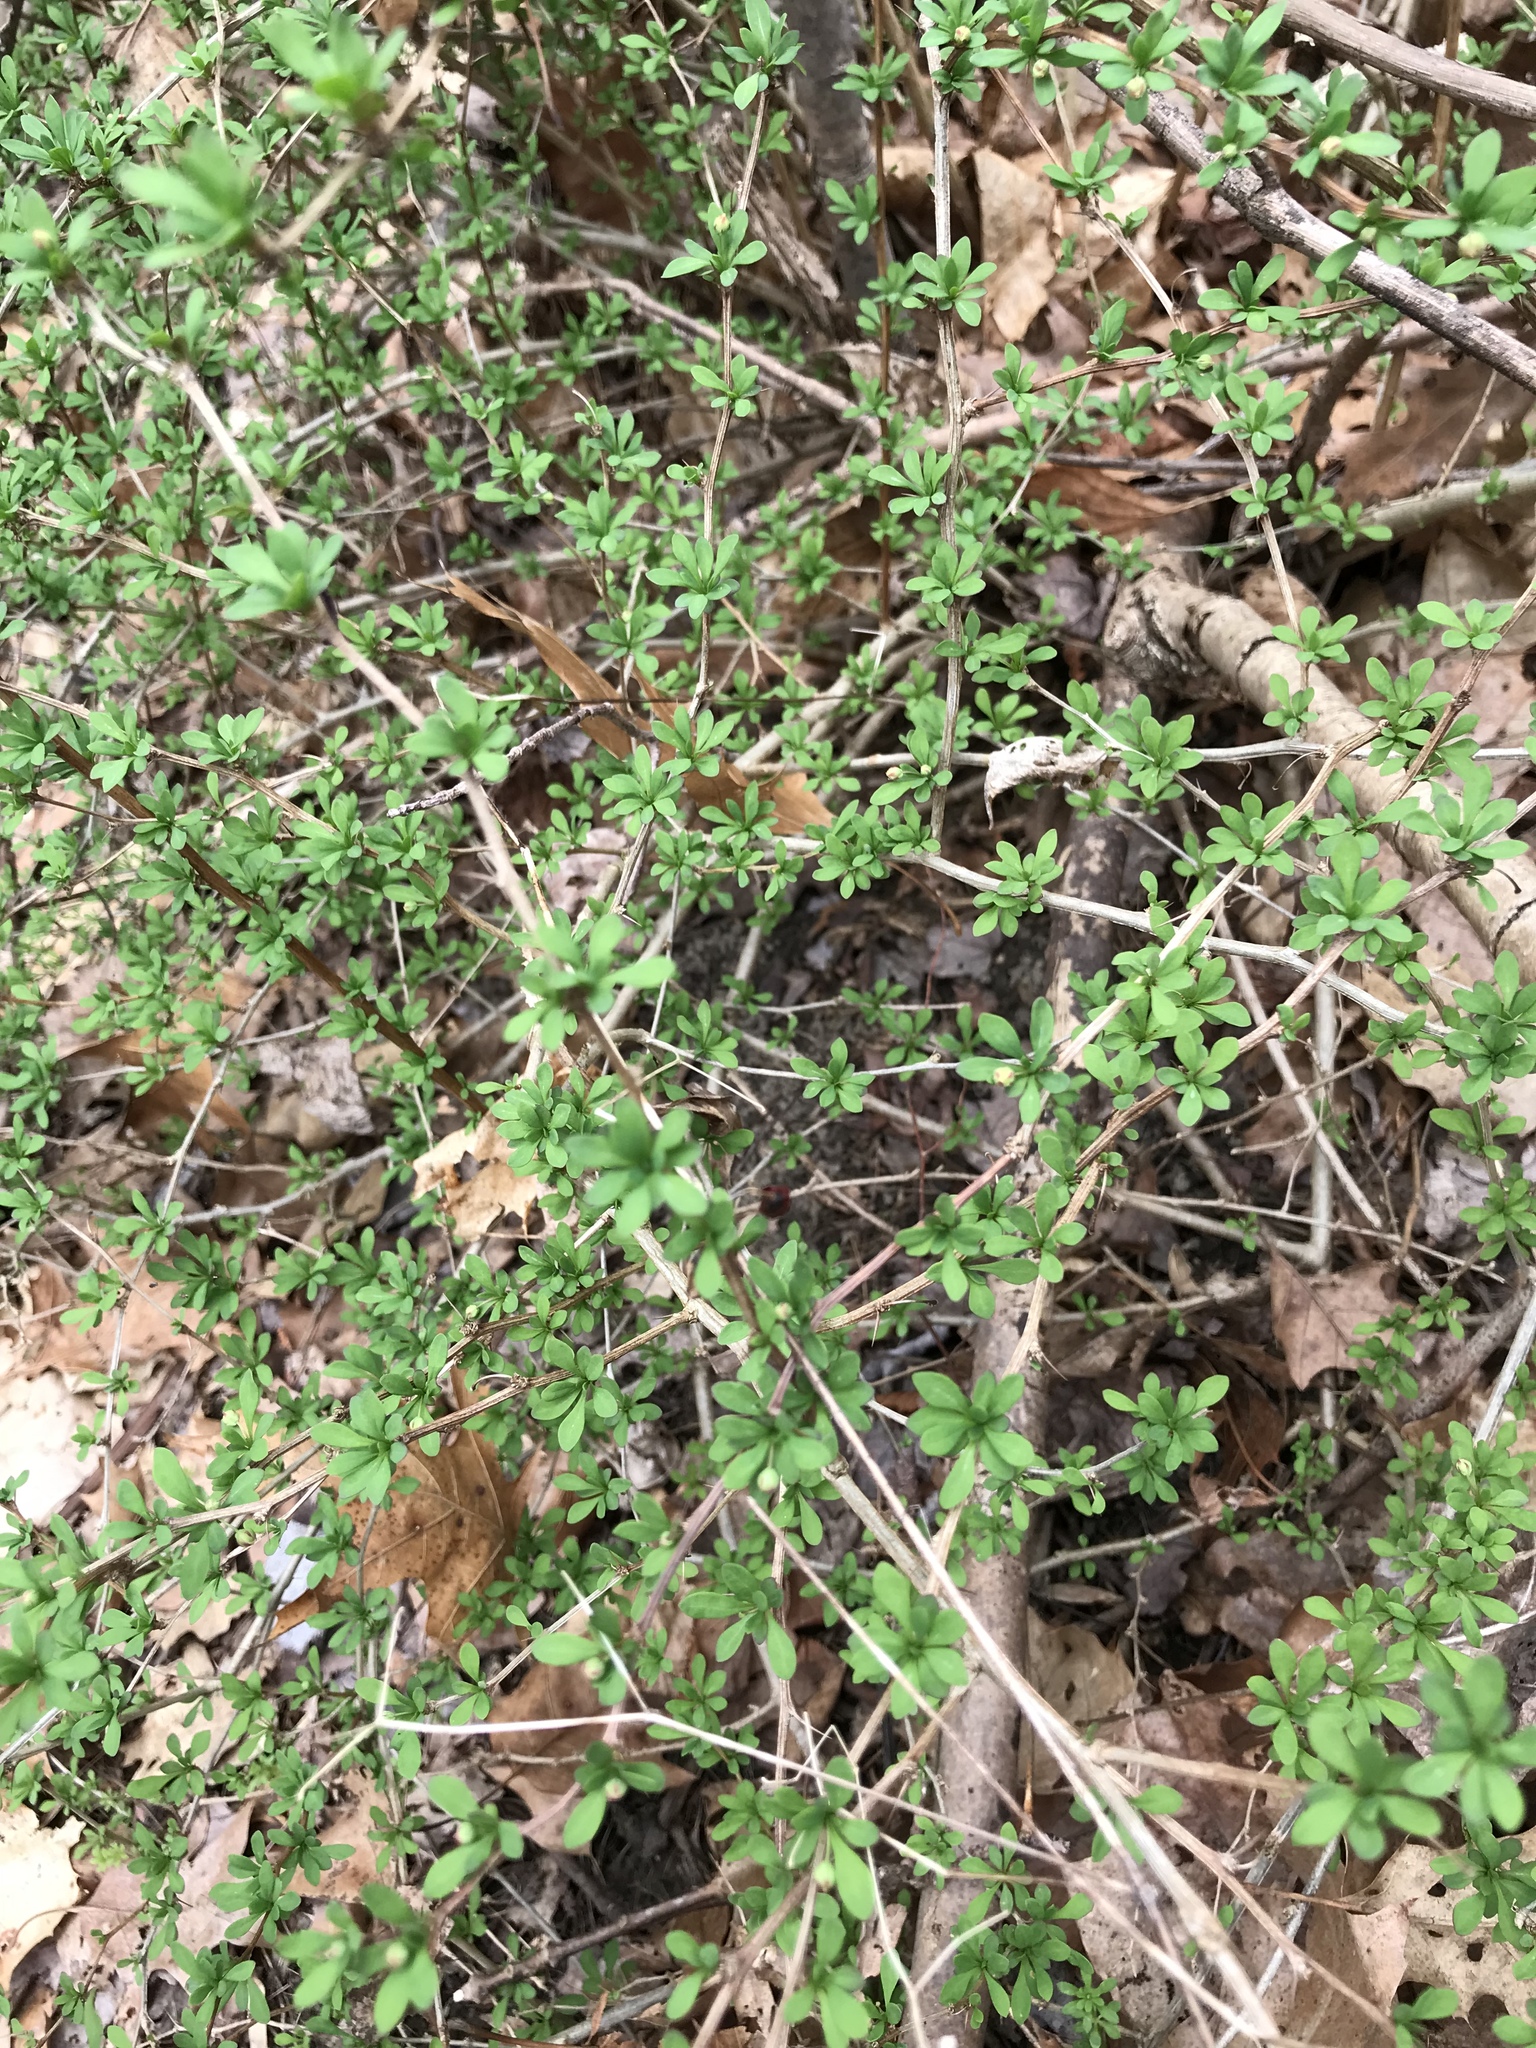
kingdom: Plantae
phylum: Tracheophyta
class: Magnoliopsida
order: Ranunculales
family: Berberidaceae
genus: Berberis
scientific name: Berberis thunbergii
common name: Japanese barberry
